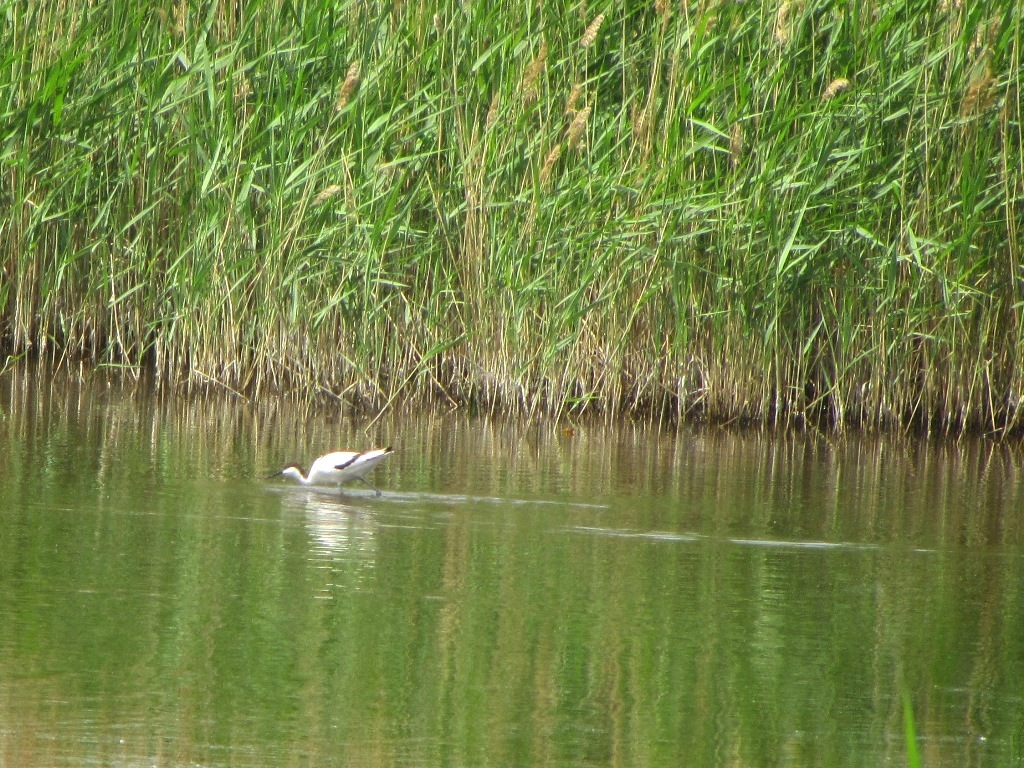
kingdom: Animalia
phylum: Chordata
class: Aves
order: Charadriiformes
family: Recurvirostridae
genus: Recurvirostra
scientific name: Recurvirostra avosetta
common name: Pied avocet
